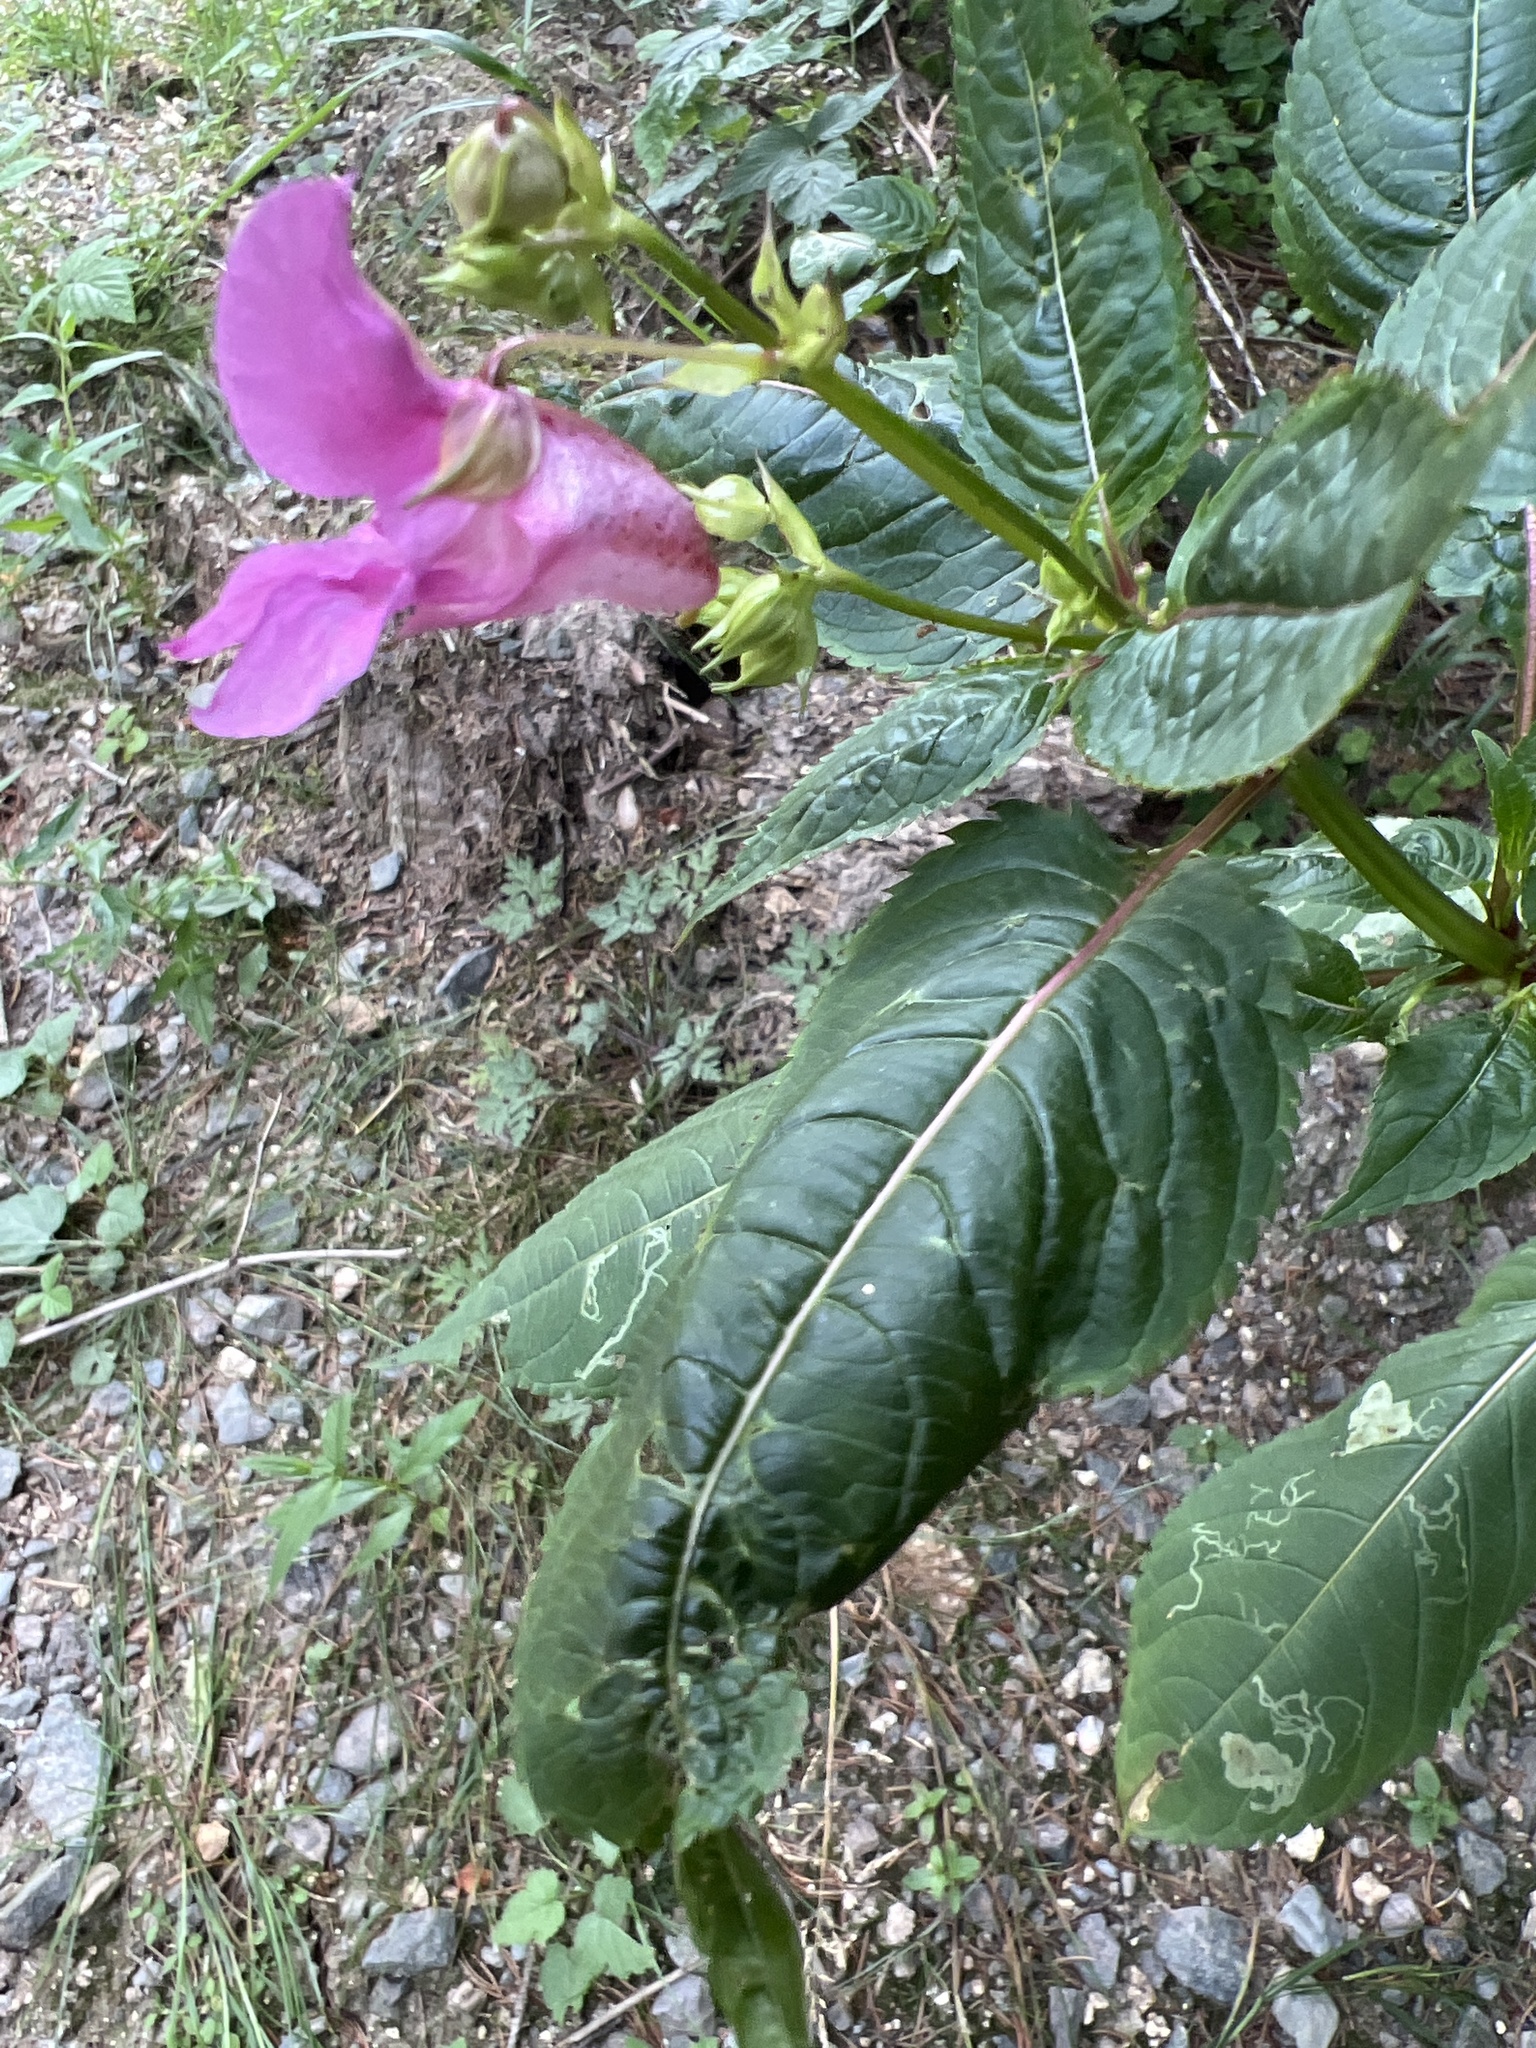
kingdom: Plantae
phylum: Tracheophyta
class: Magnoliopsida
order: Ericales
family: Balsaminaceae
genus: Impatiens
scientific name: Impatiens glandulifera
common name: Himalayan balsam
